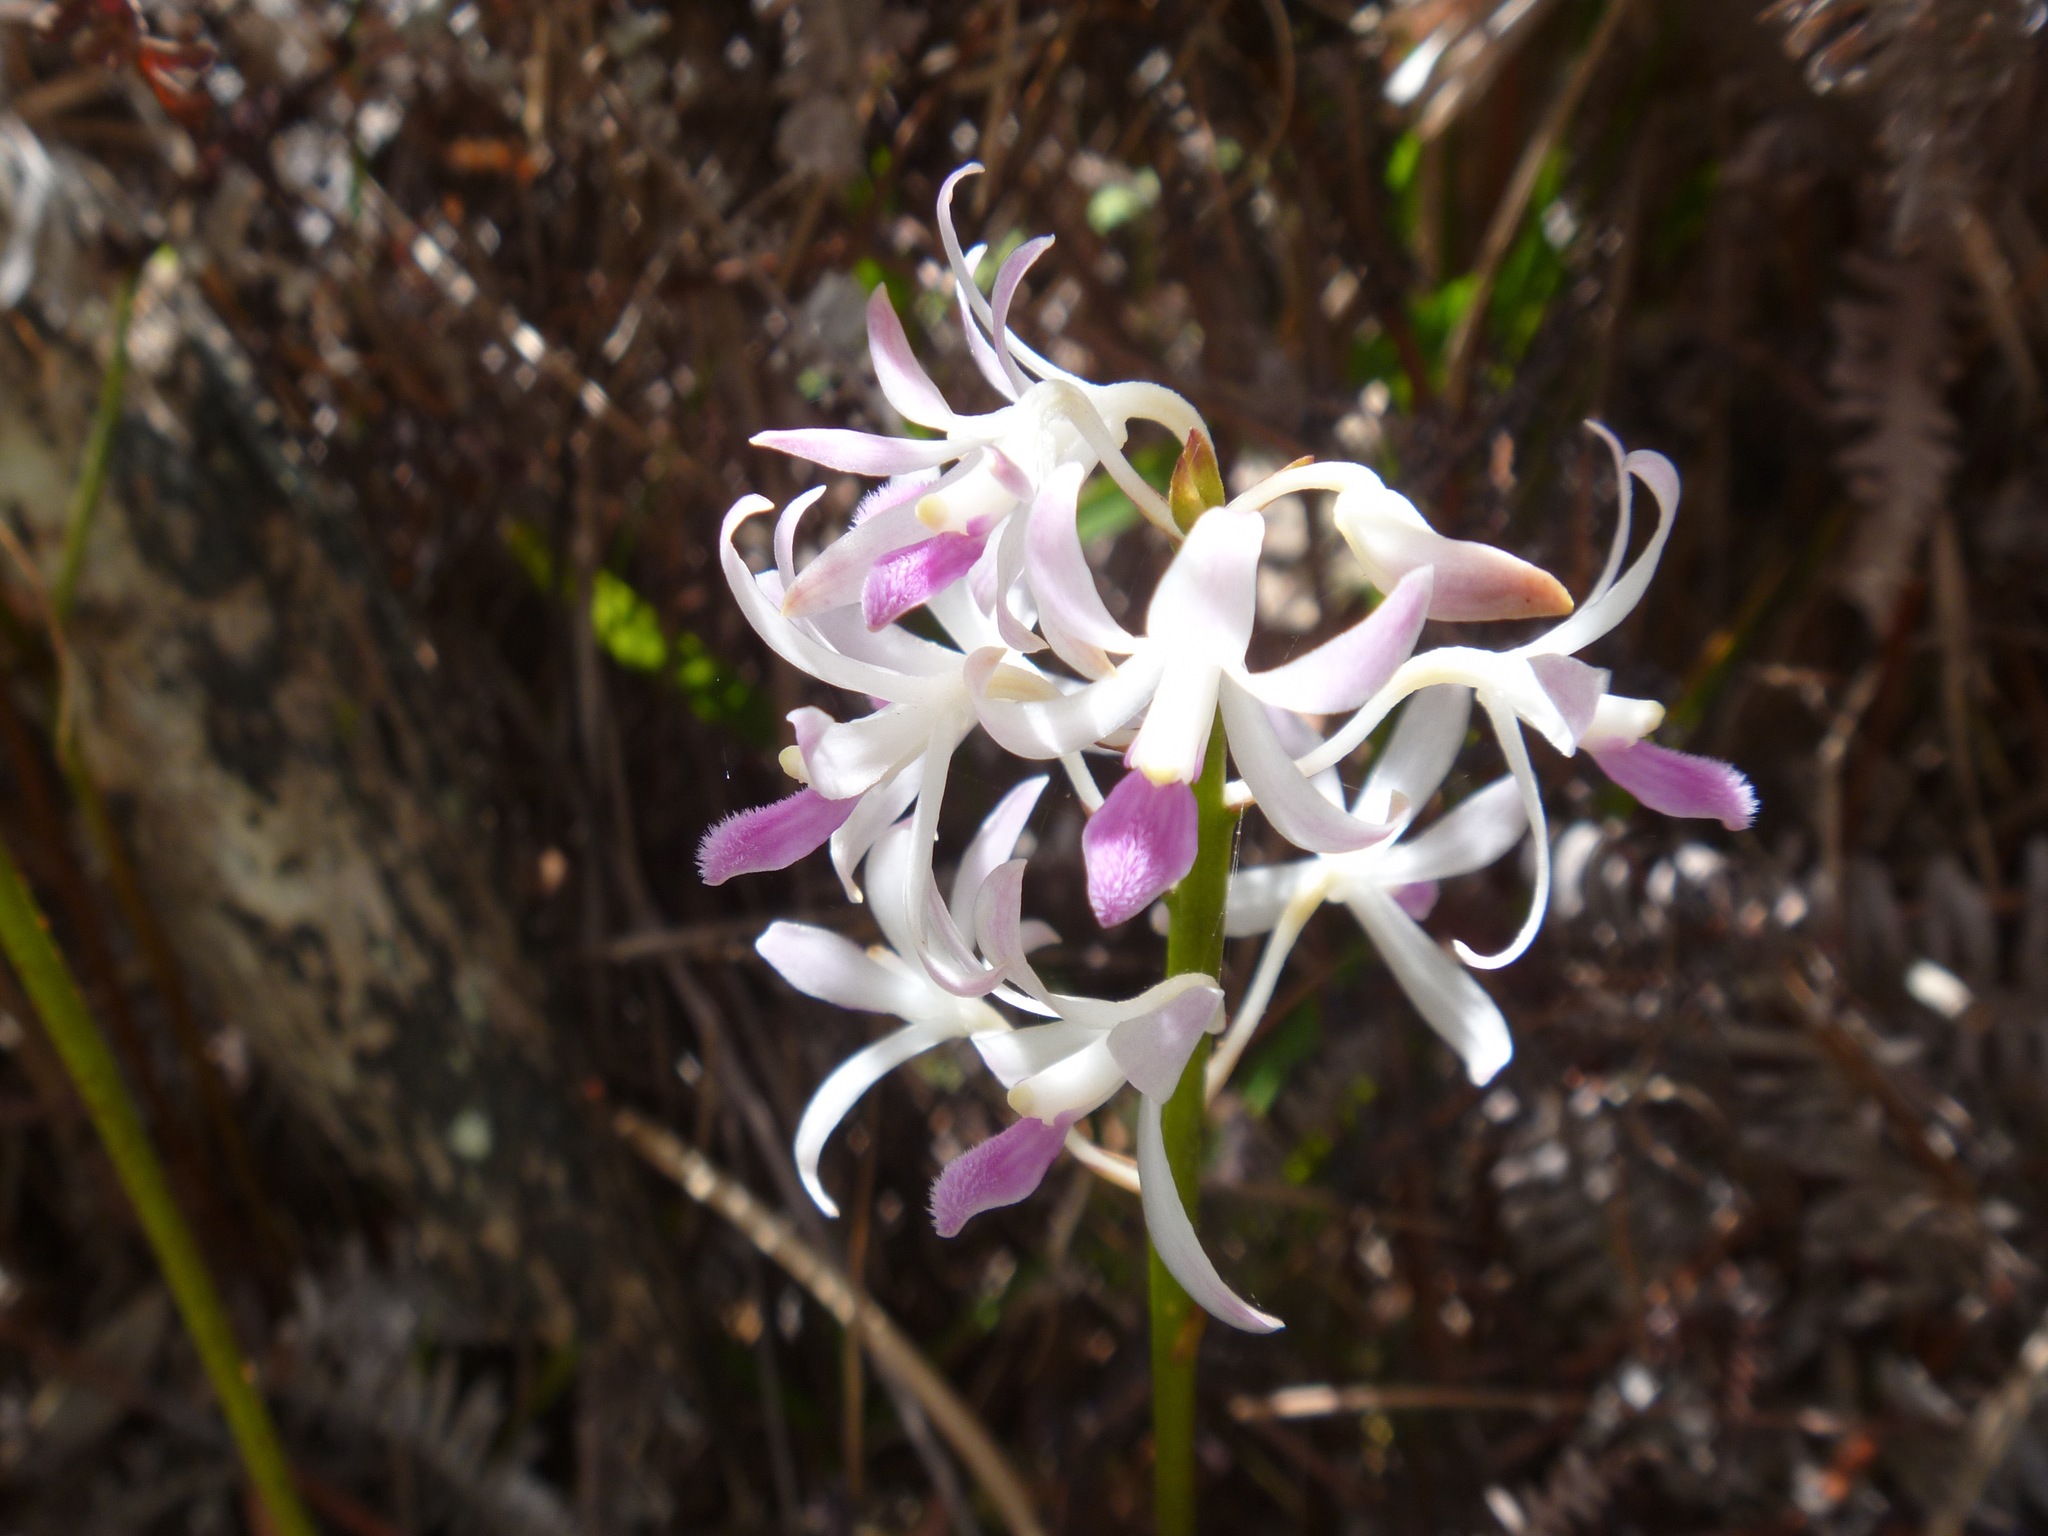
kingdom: Plantae
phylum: Tracheophyta
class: Liliopsida
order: Asparagales
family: Orchidaceae
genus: Dipodium
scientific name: Dipodium squamatum
